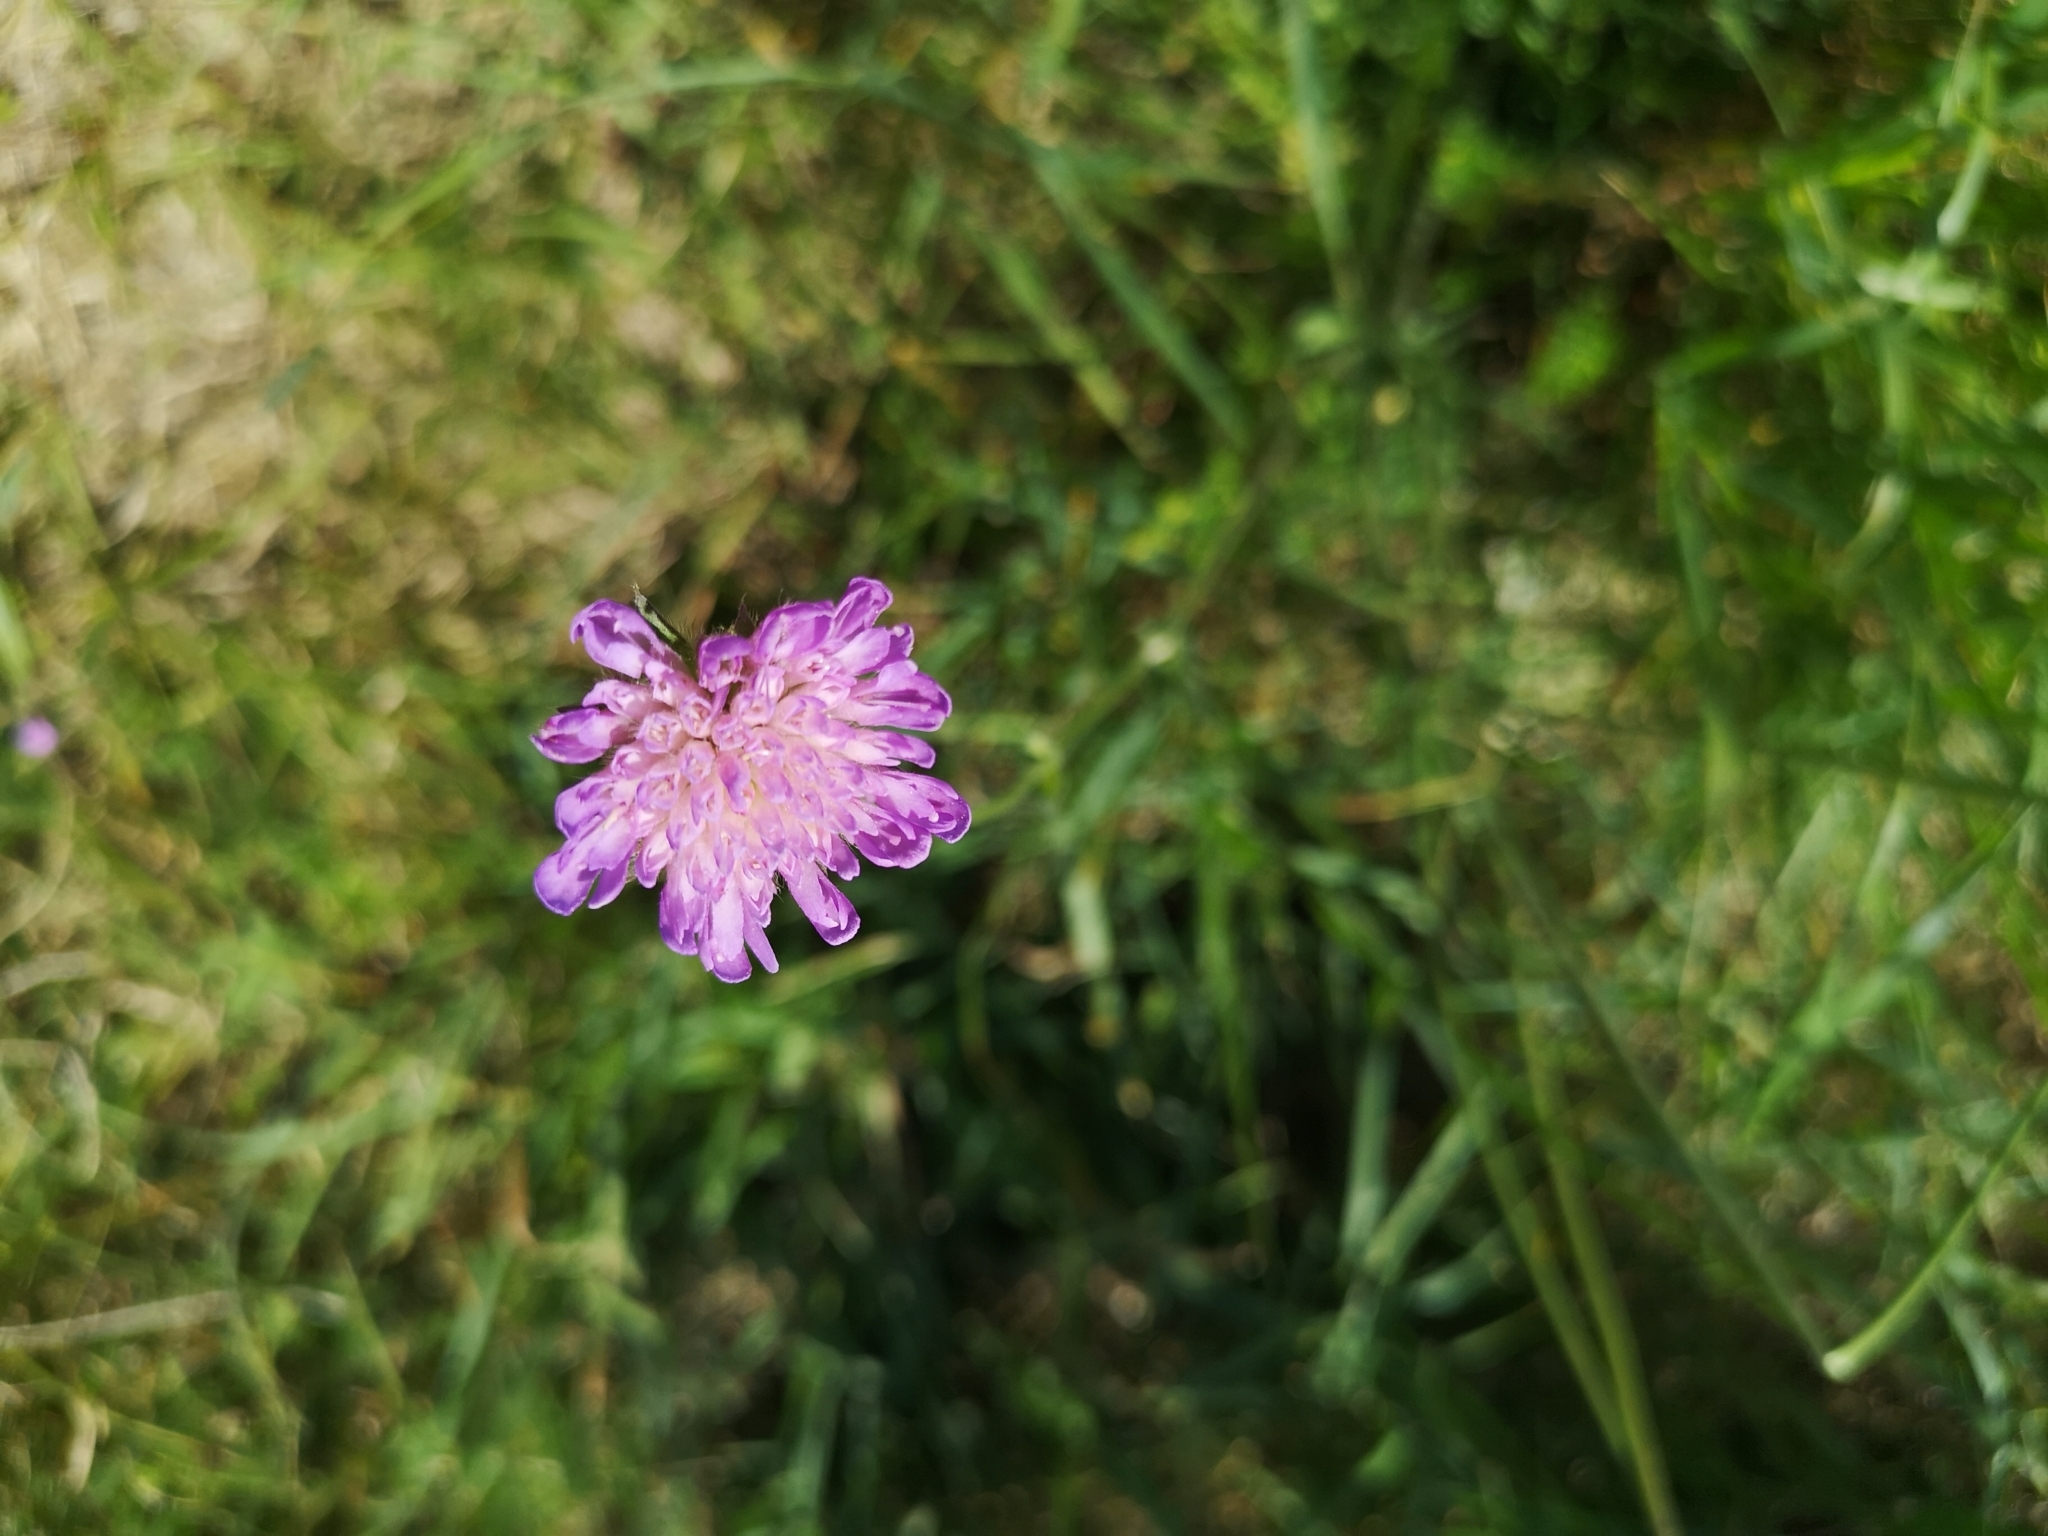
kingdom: Plantae
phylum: Tracheophyta
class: Magnoliopsida
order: Dipsacales
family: Caprifoliaceae
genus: Knautia
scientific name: Knautia arvensis
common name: Field scabiosa
